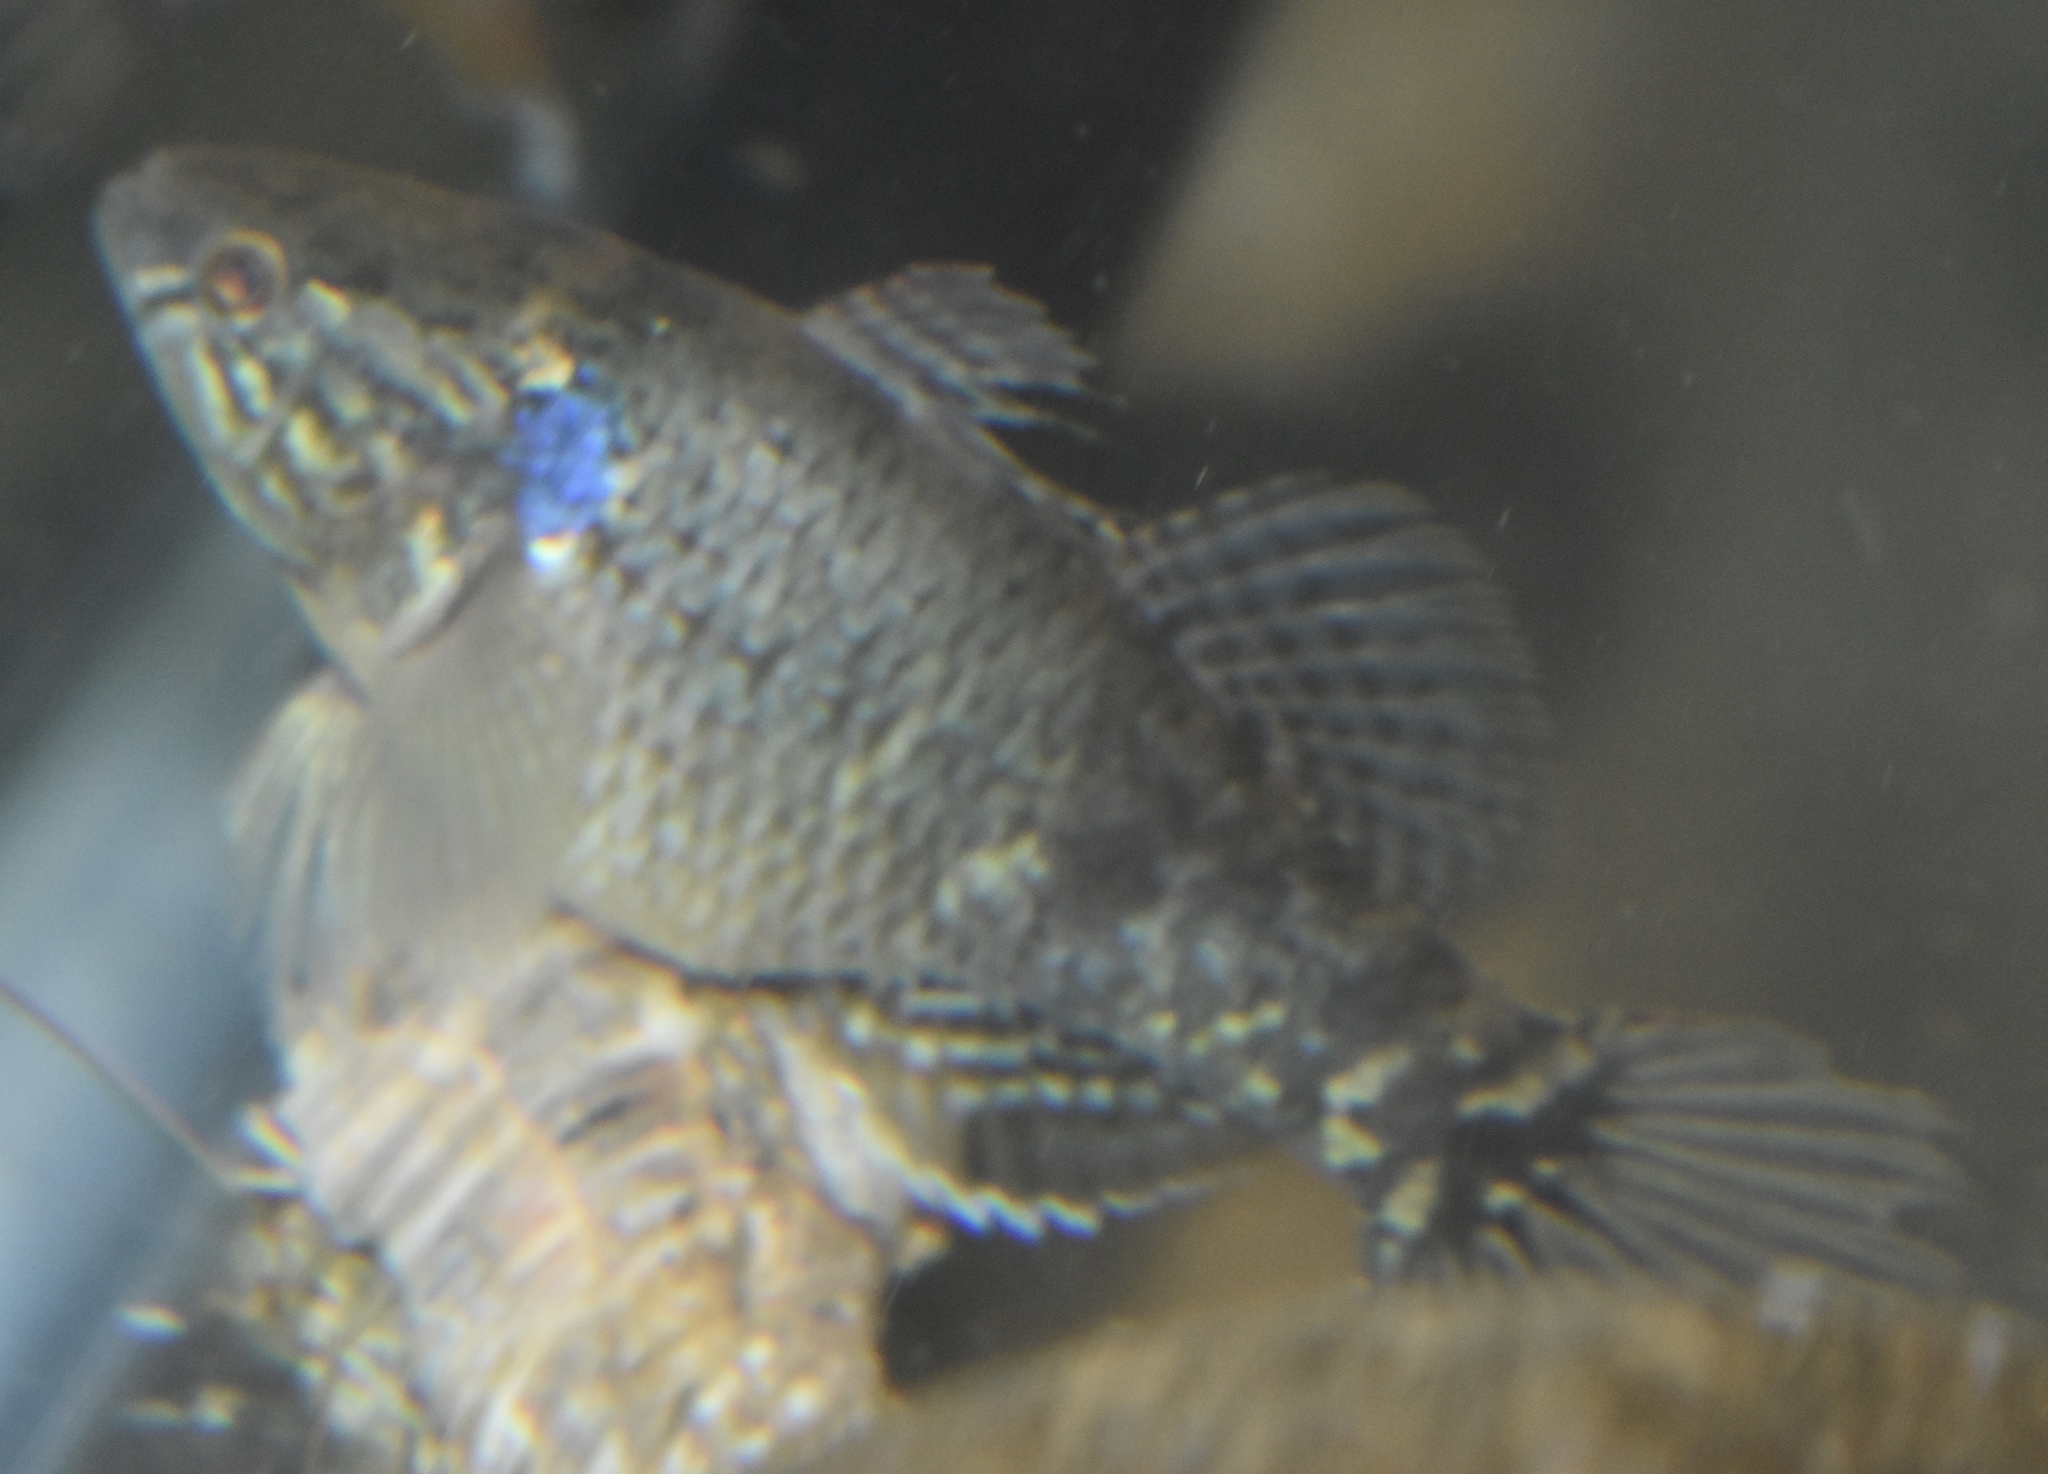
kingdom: Animalia
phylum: Chordata
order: Perciformes
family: Eleotridae
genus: Dormitator
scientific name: Dormitator maculatus
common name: Fat sleeper
